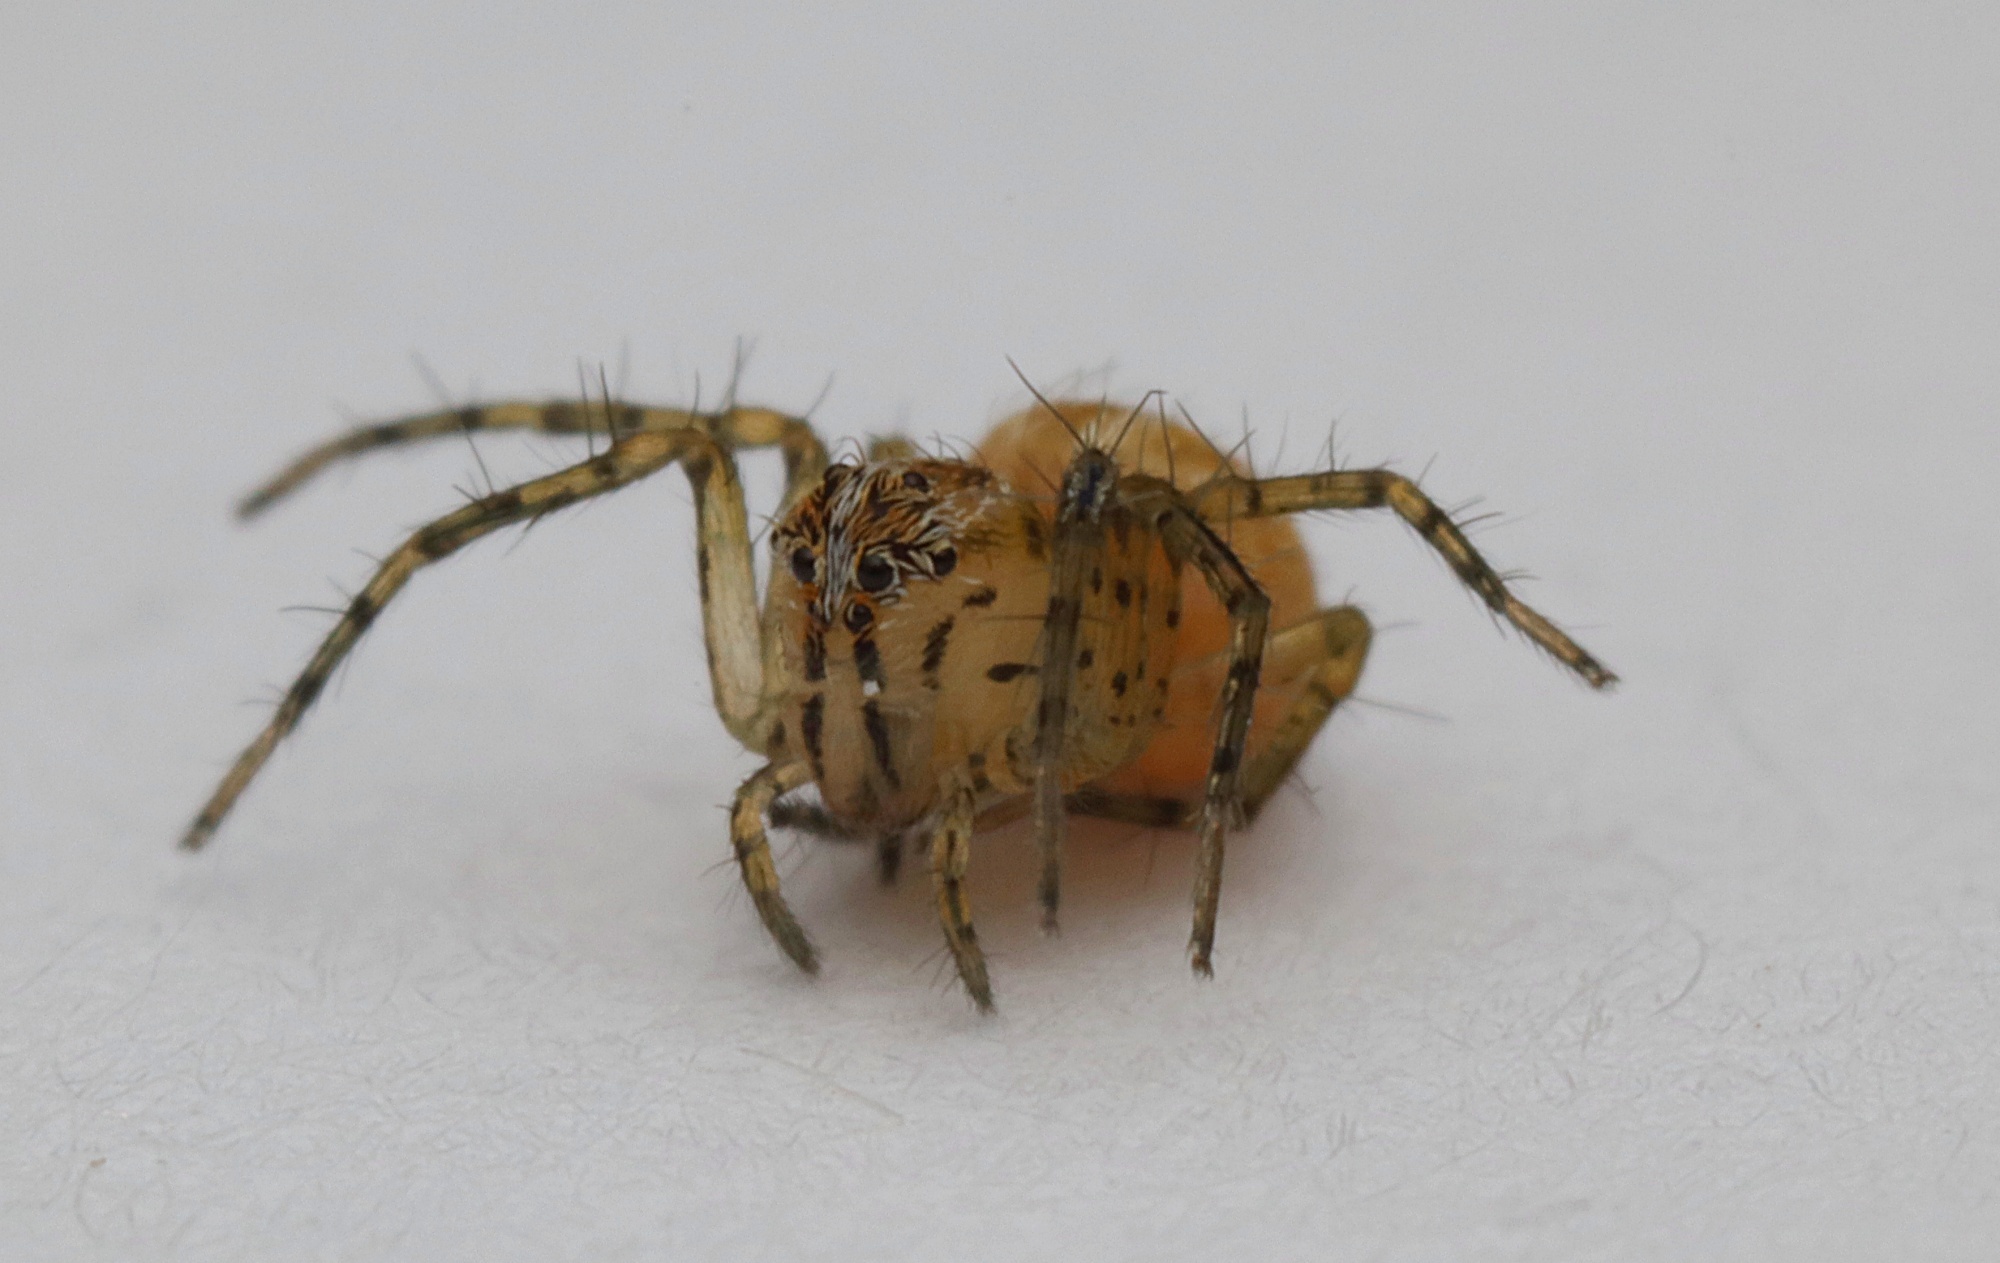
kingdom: Animalia
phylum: Arthropoda
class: Arachnida
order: Araneae
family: Oxyopidae
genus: Oxyopes
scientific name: Oxyopes gracilipes
